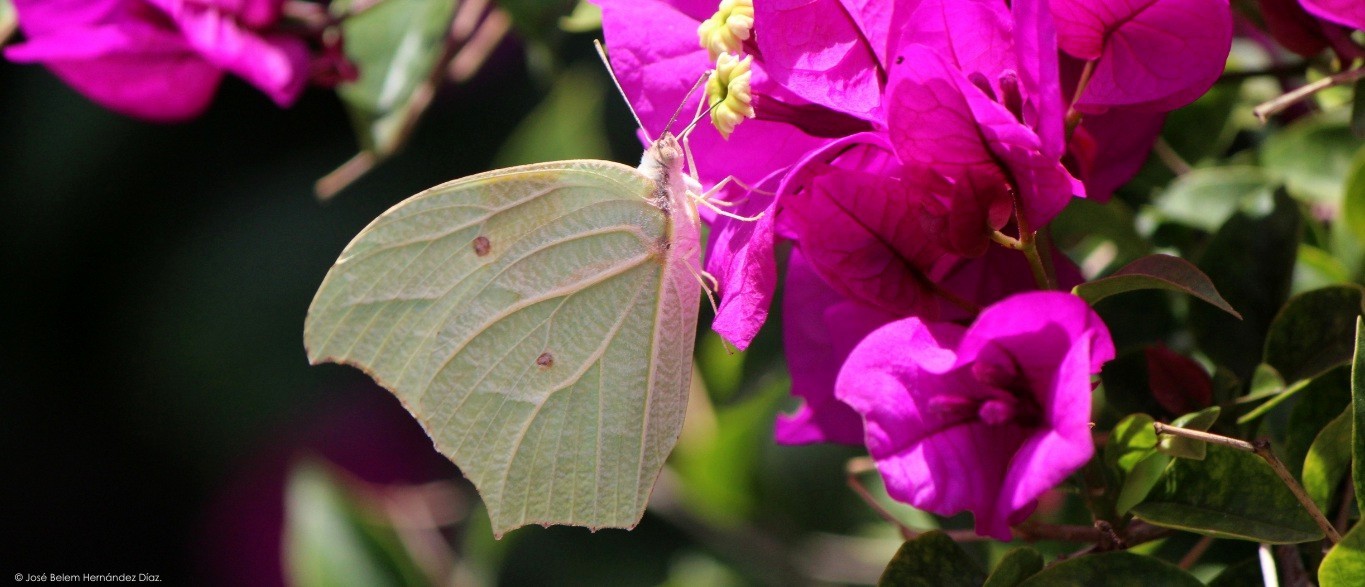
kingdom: Animalia
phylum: Arthropoda
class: Insecta
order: Lepidoptera
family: Pieridae
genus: Anteos
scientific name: Anteos clorinde
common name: White angled sulphur
